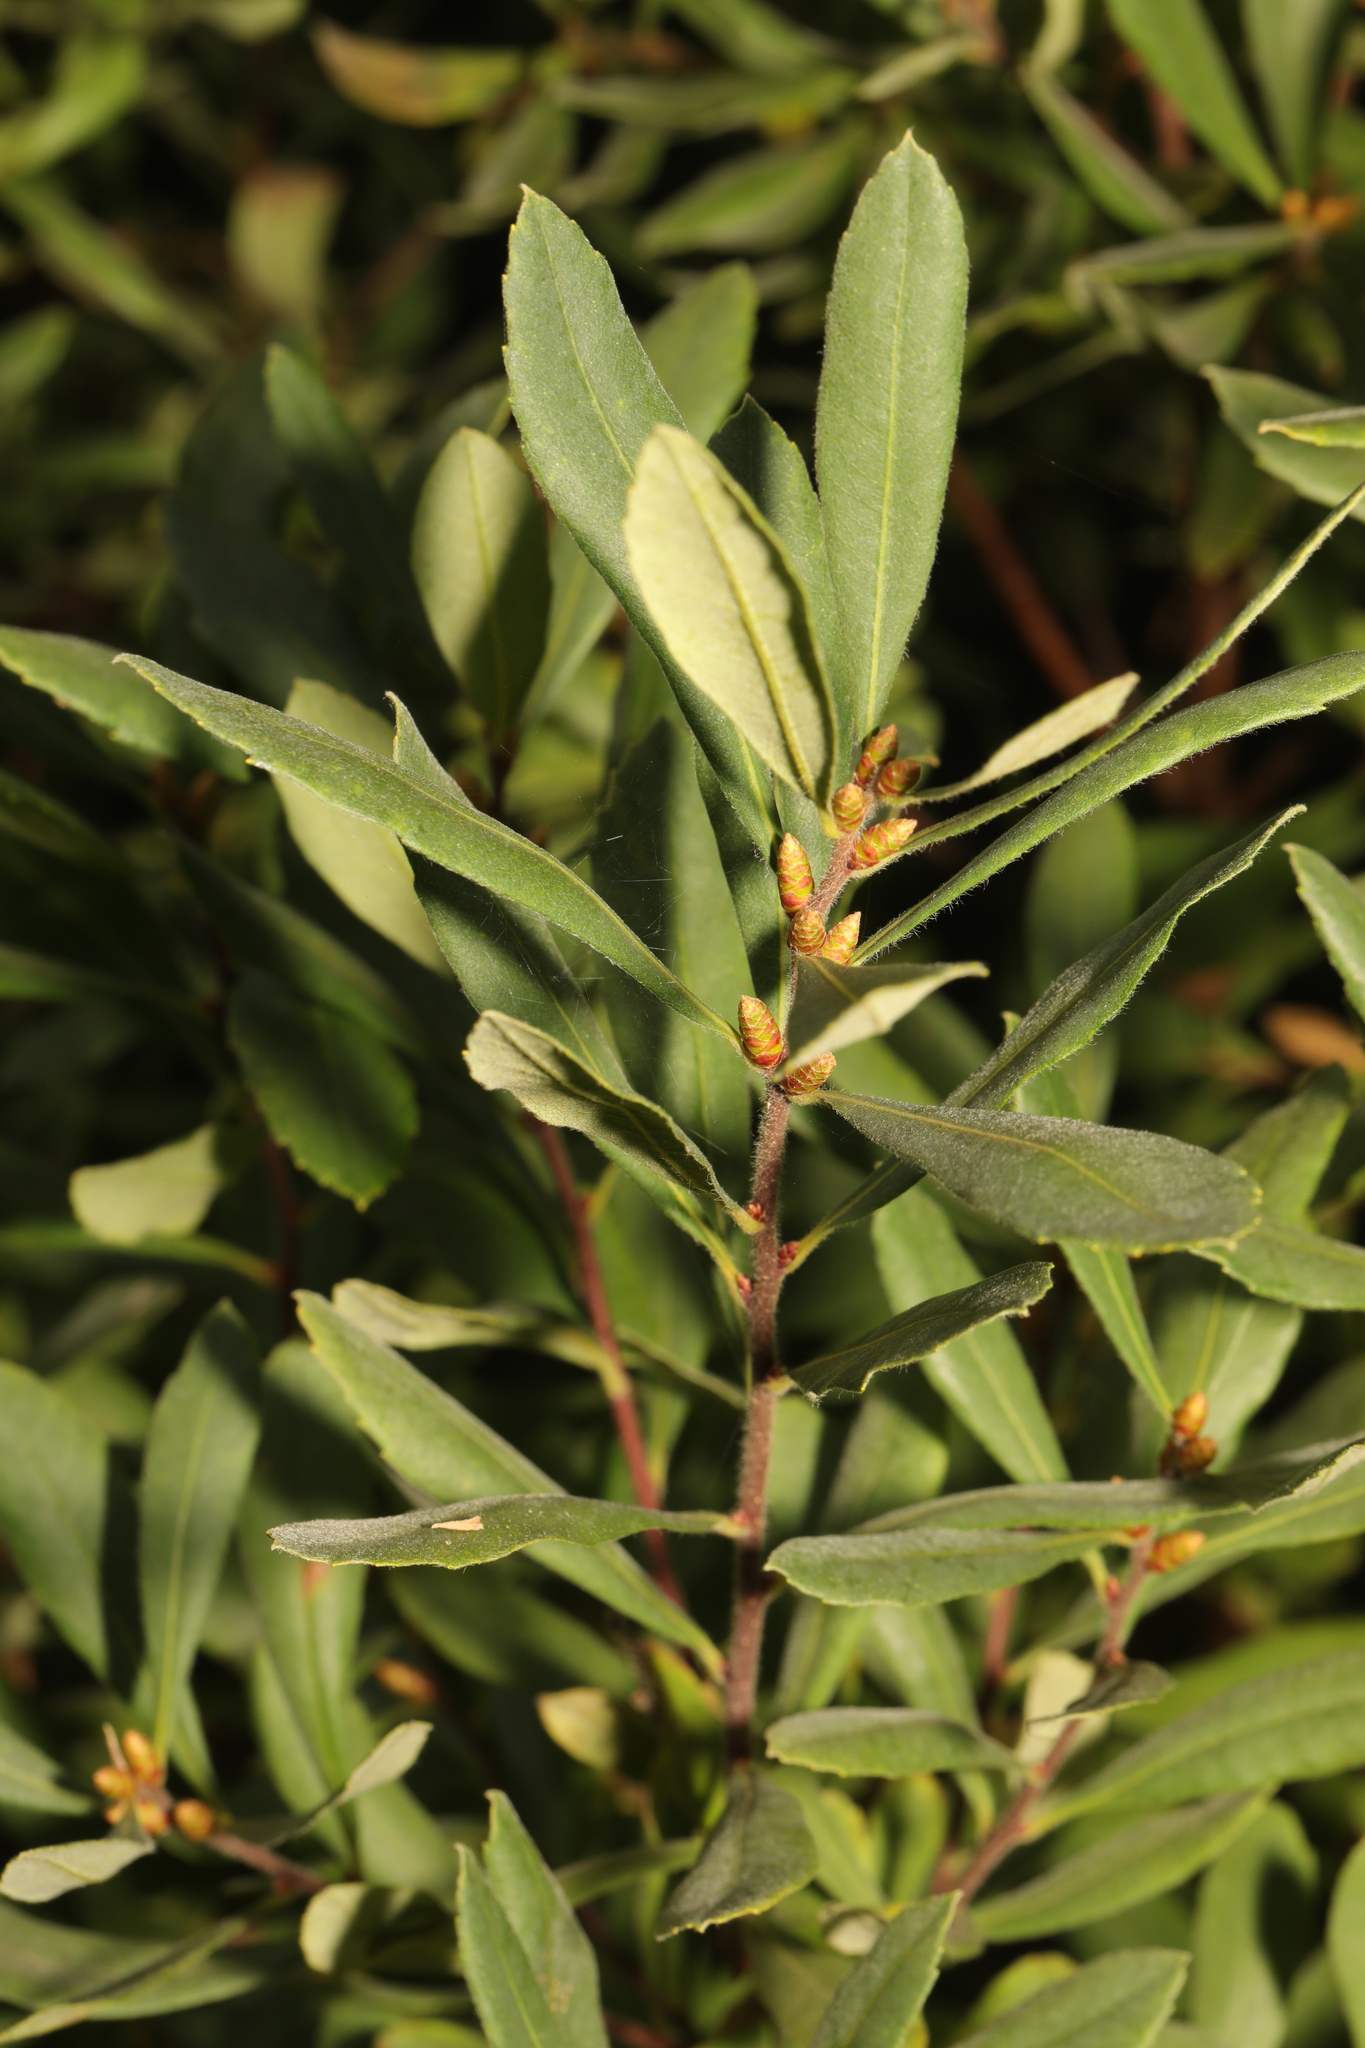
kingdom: Plantae
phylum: Tracheophyta
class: Magnoliopsida
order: Fagales
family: Myricaceae
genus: Myrica
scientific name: Myrica gale
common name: Sweet gale
